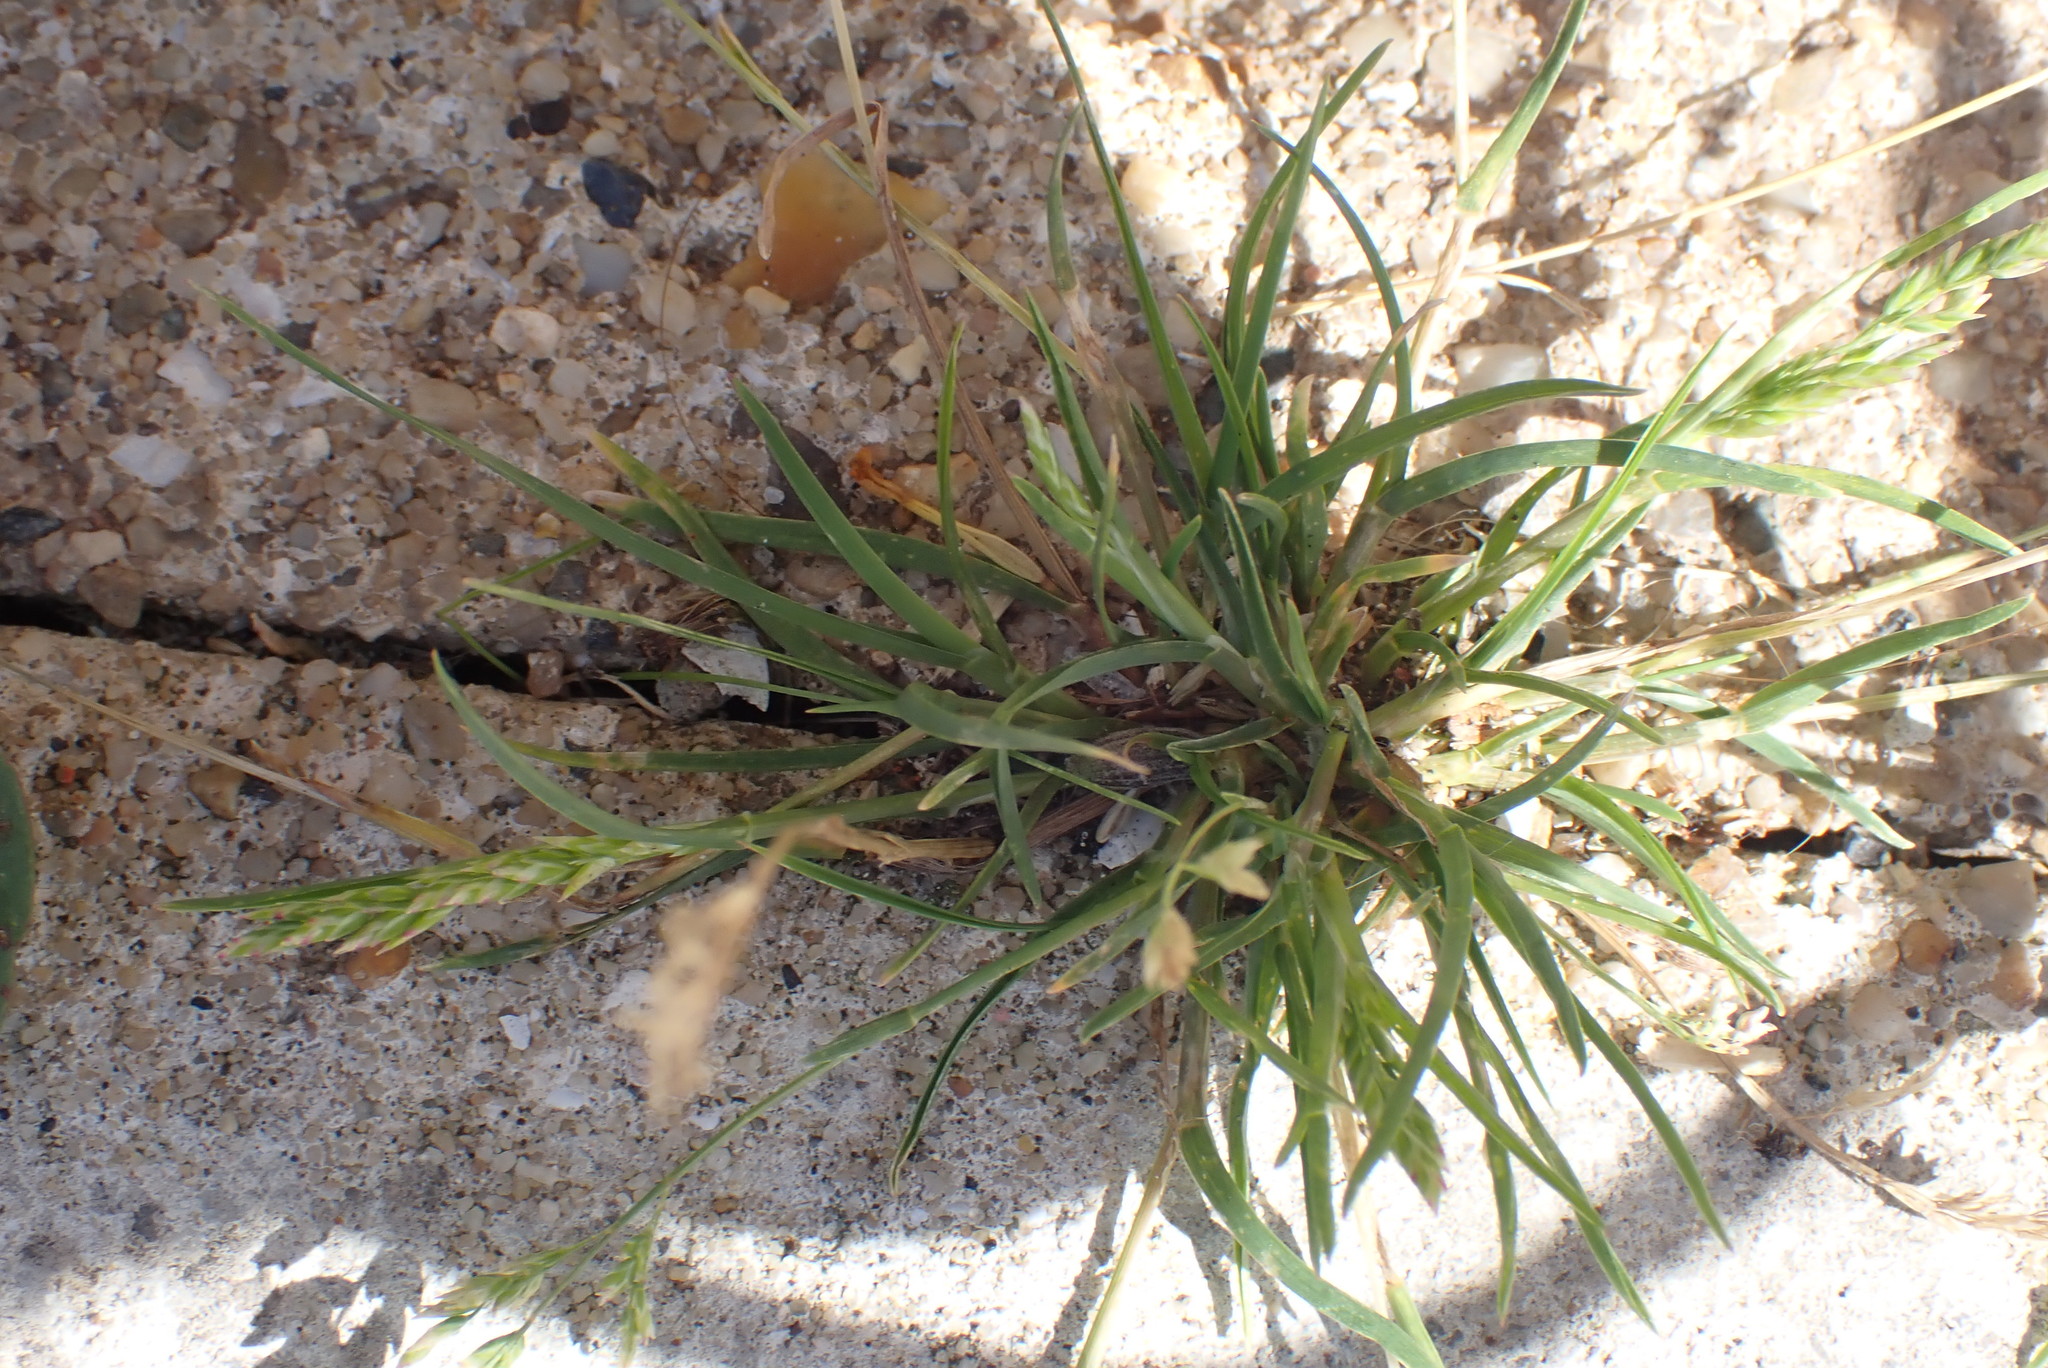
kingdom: Plantae
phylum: Tracheophyta
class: Liliopsida
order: Poales
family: Poaceae
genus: Poa
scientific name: Poa annua
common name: Annual bluegrass
